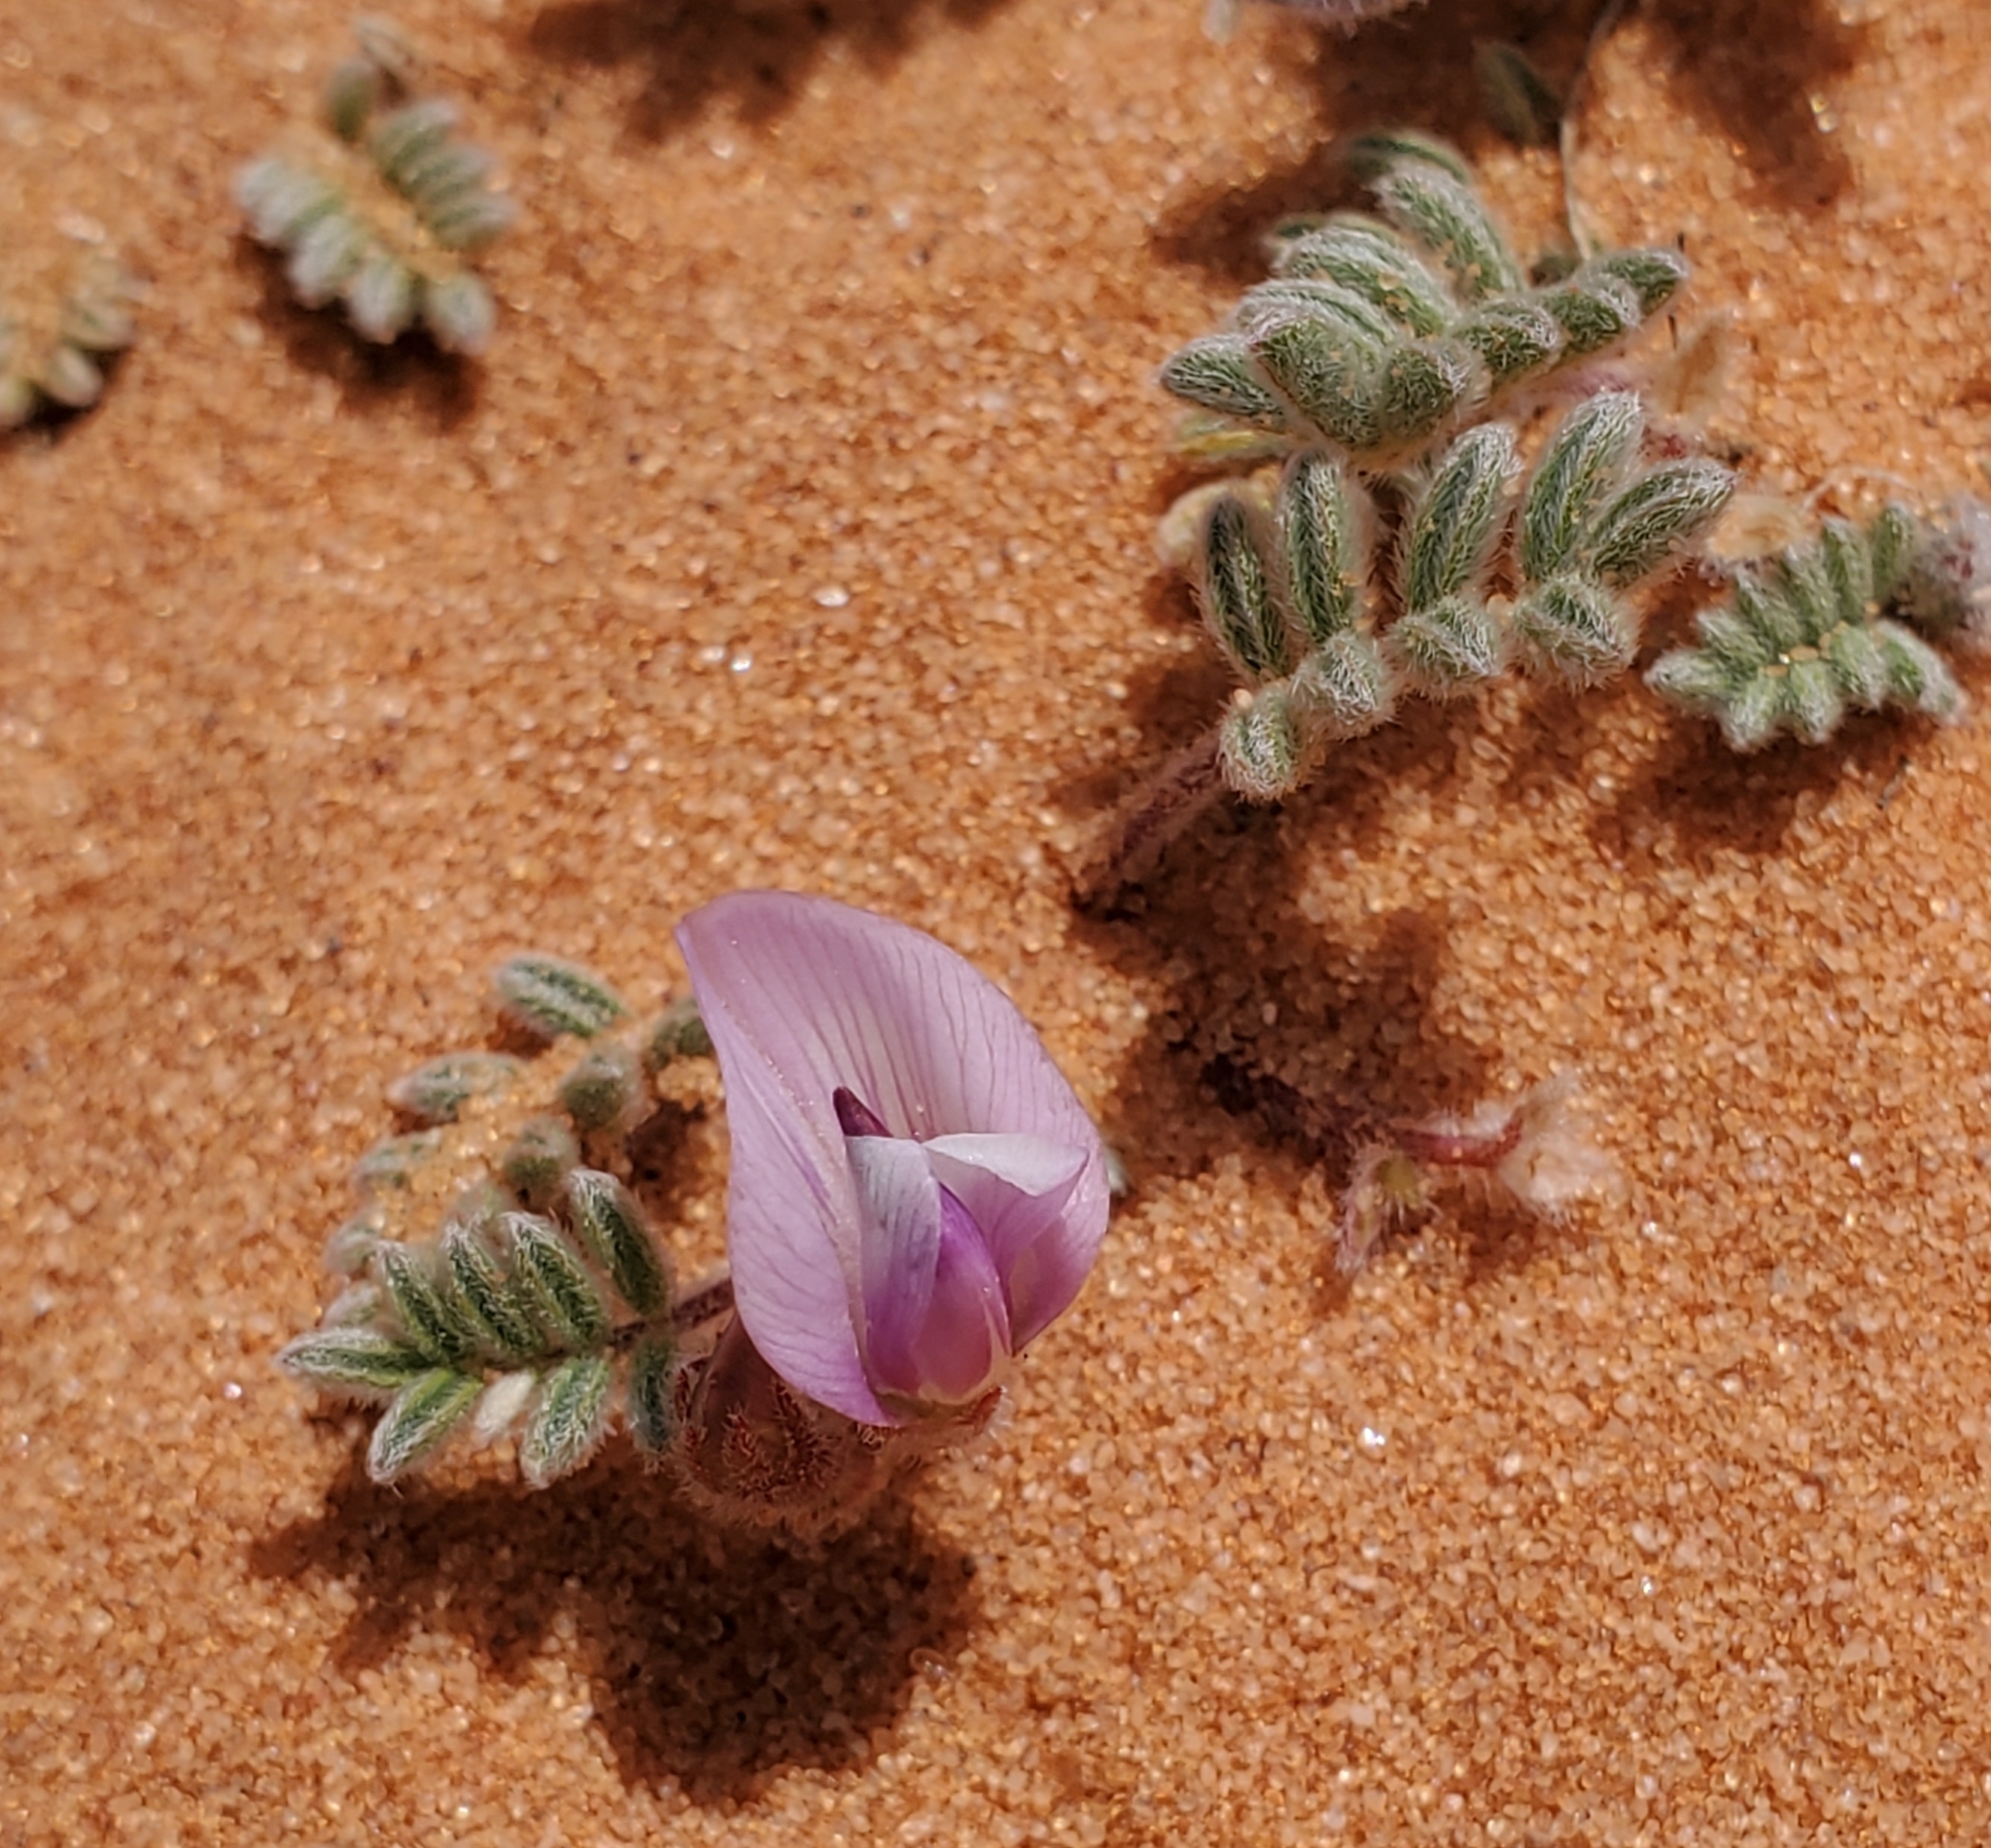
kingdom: Plantae
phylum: Tracheophyta
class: Magnoliopsida
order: Fabales
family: Fabaceae
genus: Astragalus
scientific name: Astragalus striatiflorus
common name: Escarpment milkvetch
